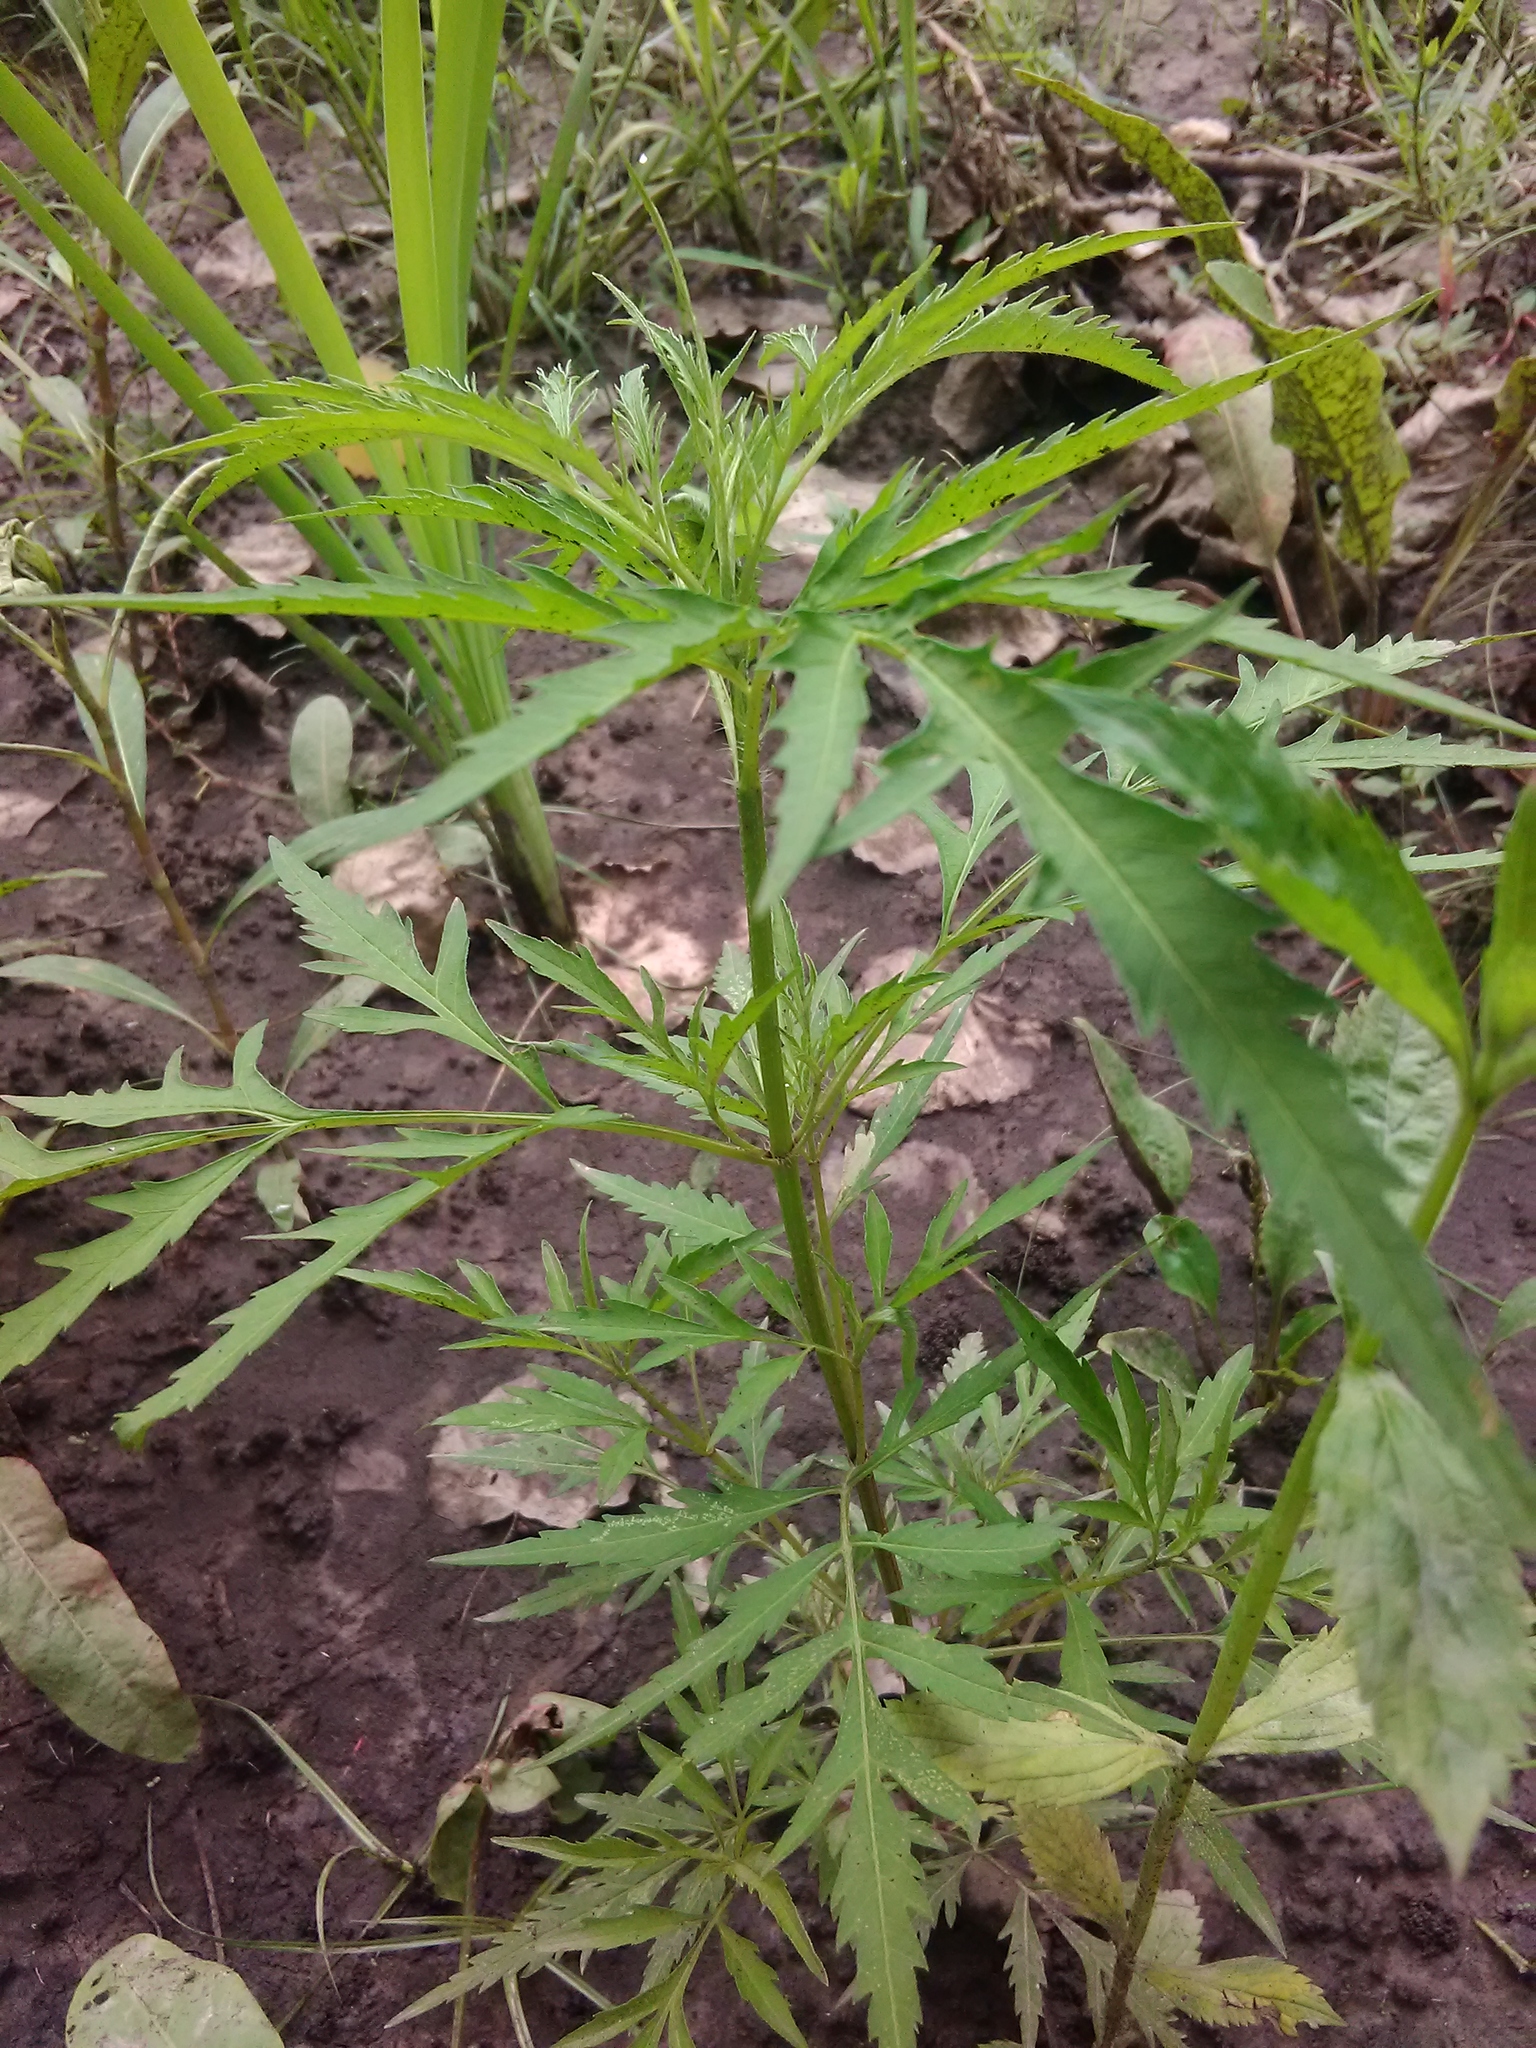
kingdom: Plantae
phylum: Tracheophyta
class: Magnoliopsida
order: Brassicales
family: Brassicaceae
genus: Cardamine
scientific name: Cardamine concatenata
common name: Cut-leaf toothcup
